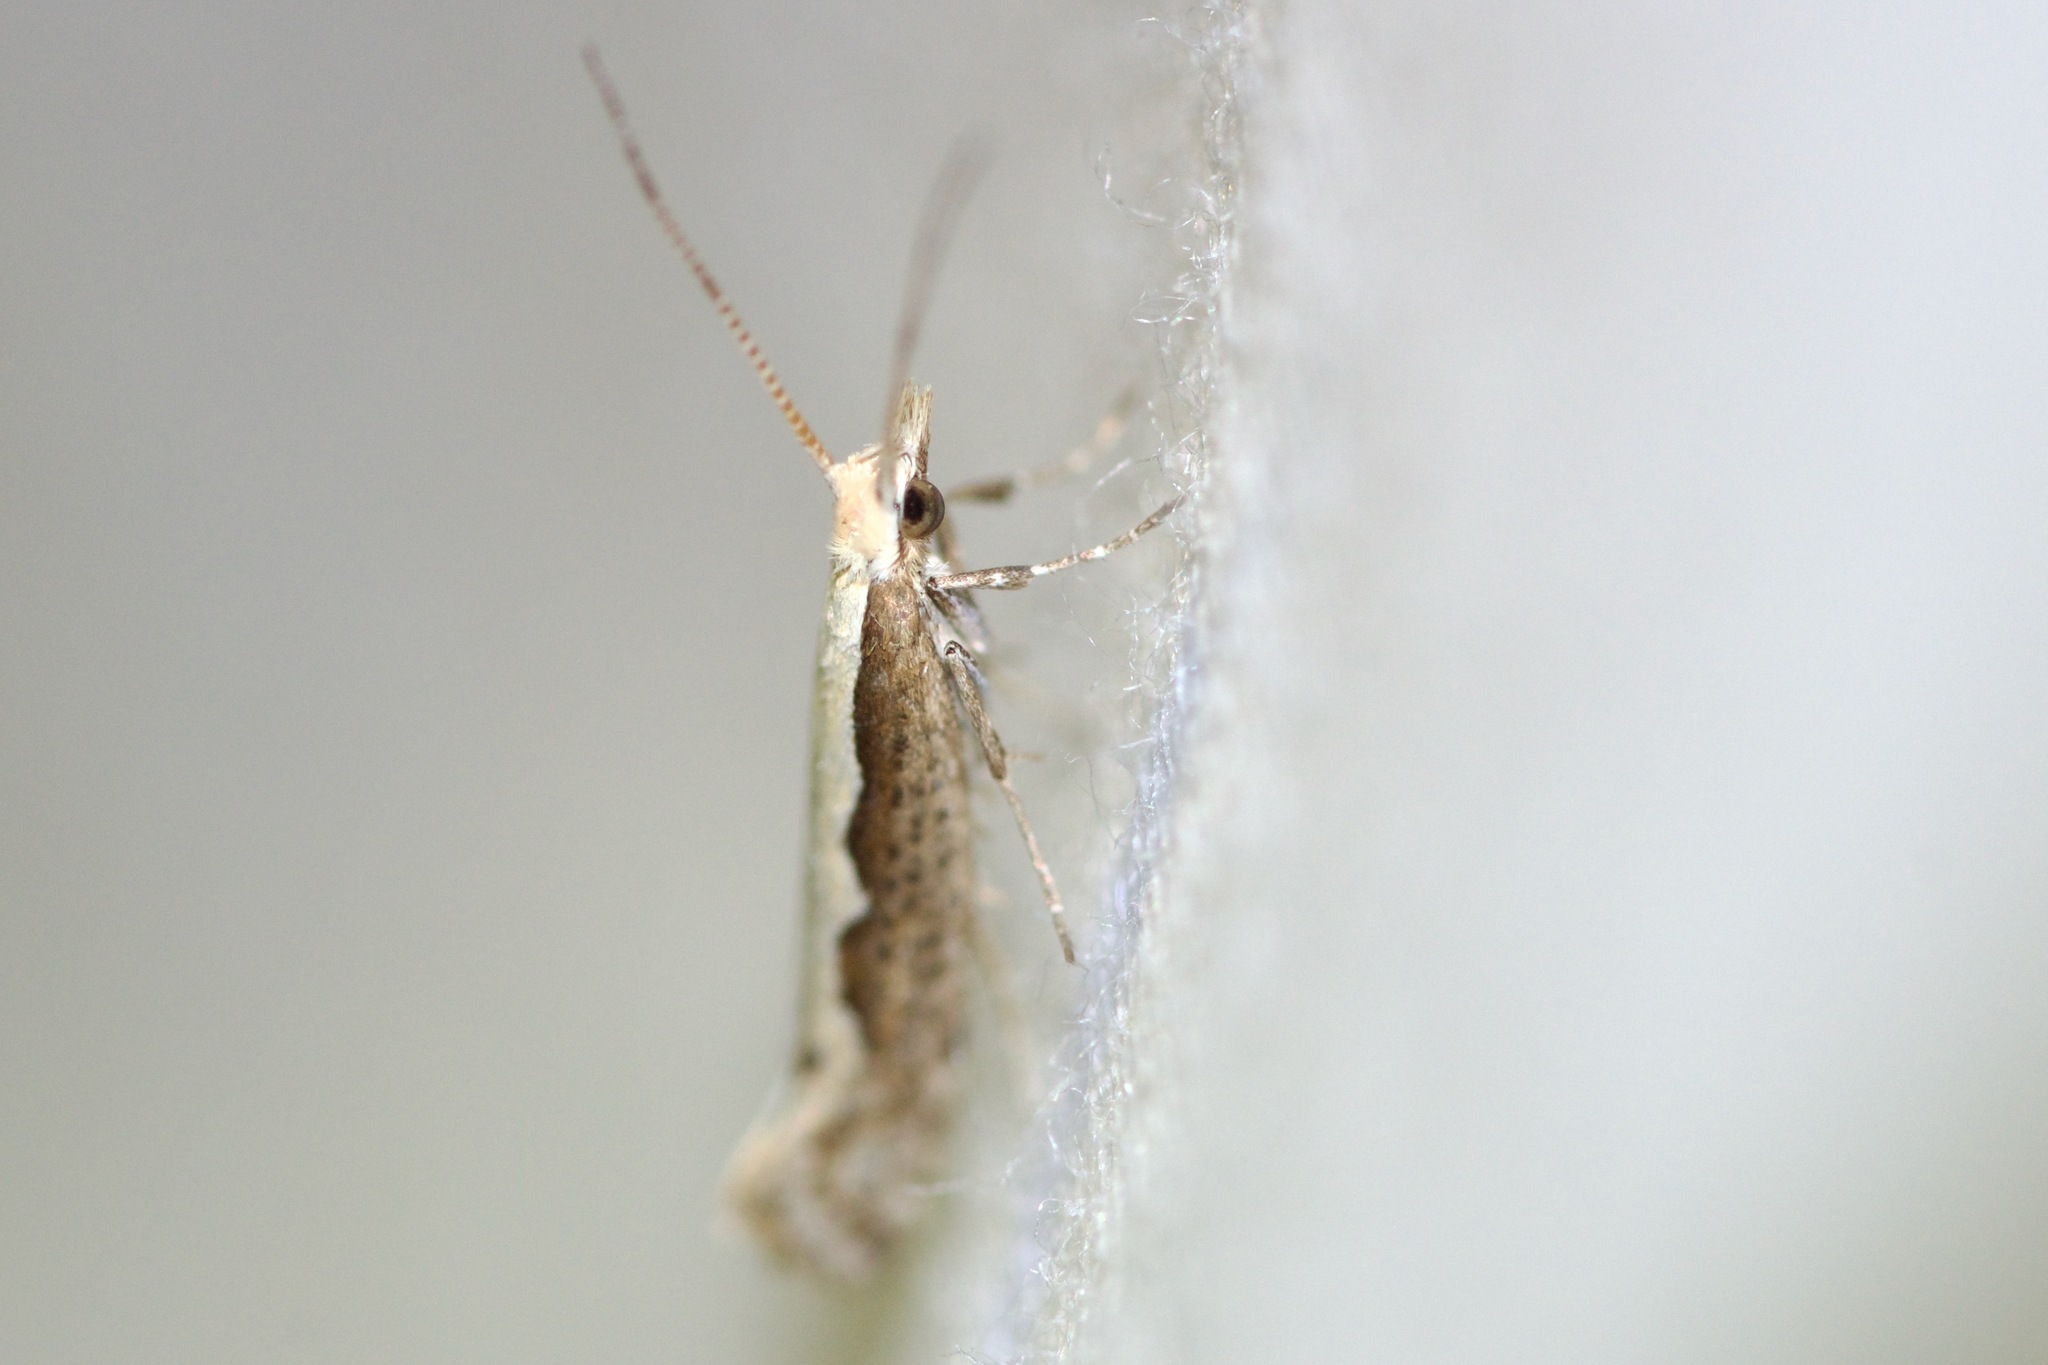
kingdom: Animalia
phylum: Arthropoda
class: Insecta
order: Lepidoptera
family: Plutellidae
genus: Plutella
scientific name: Plutella xylostella
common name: Diamond-back moth
